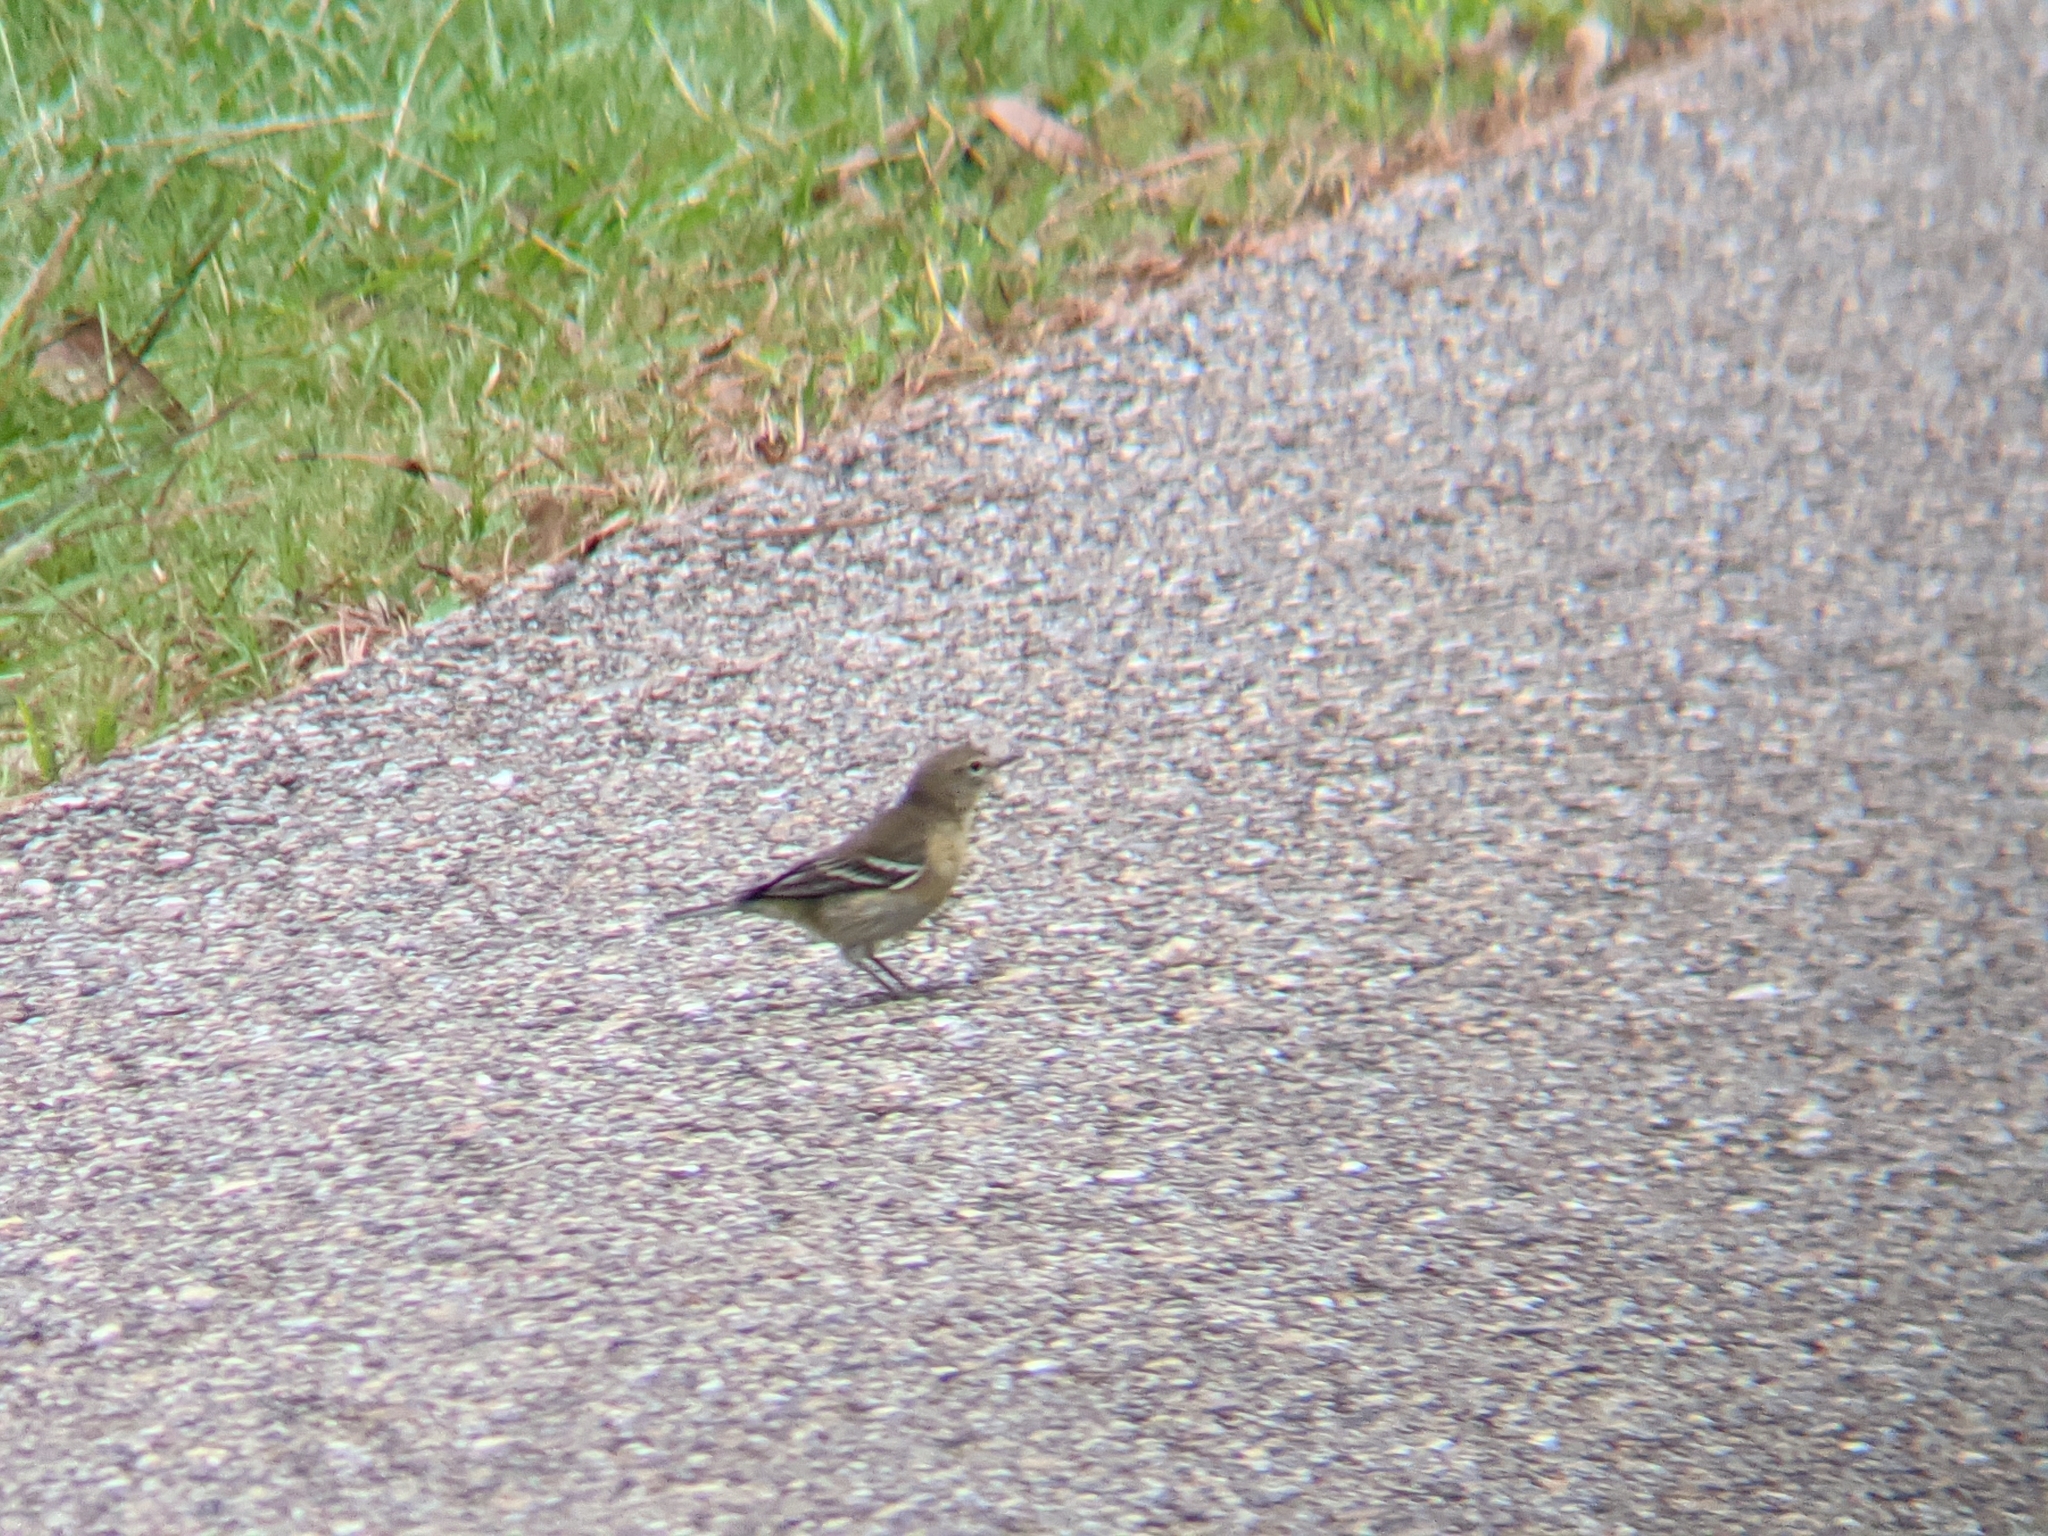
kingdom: Animalia
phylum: Chordata
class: Aves
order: Passeriformes
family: Parulidae
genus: Setophaga
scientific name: Setophaga pinus
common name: Pine warbler
